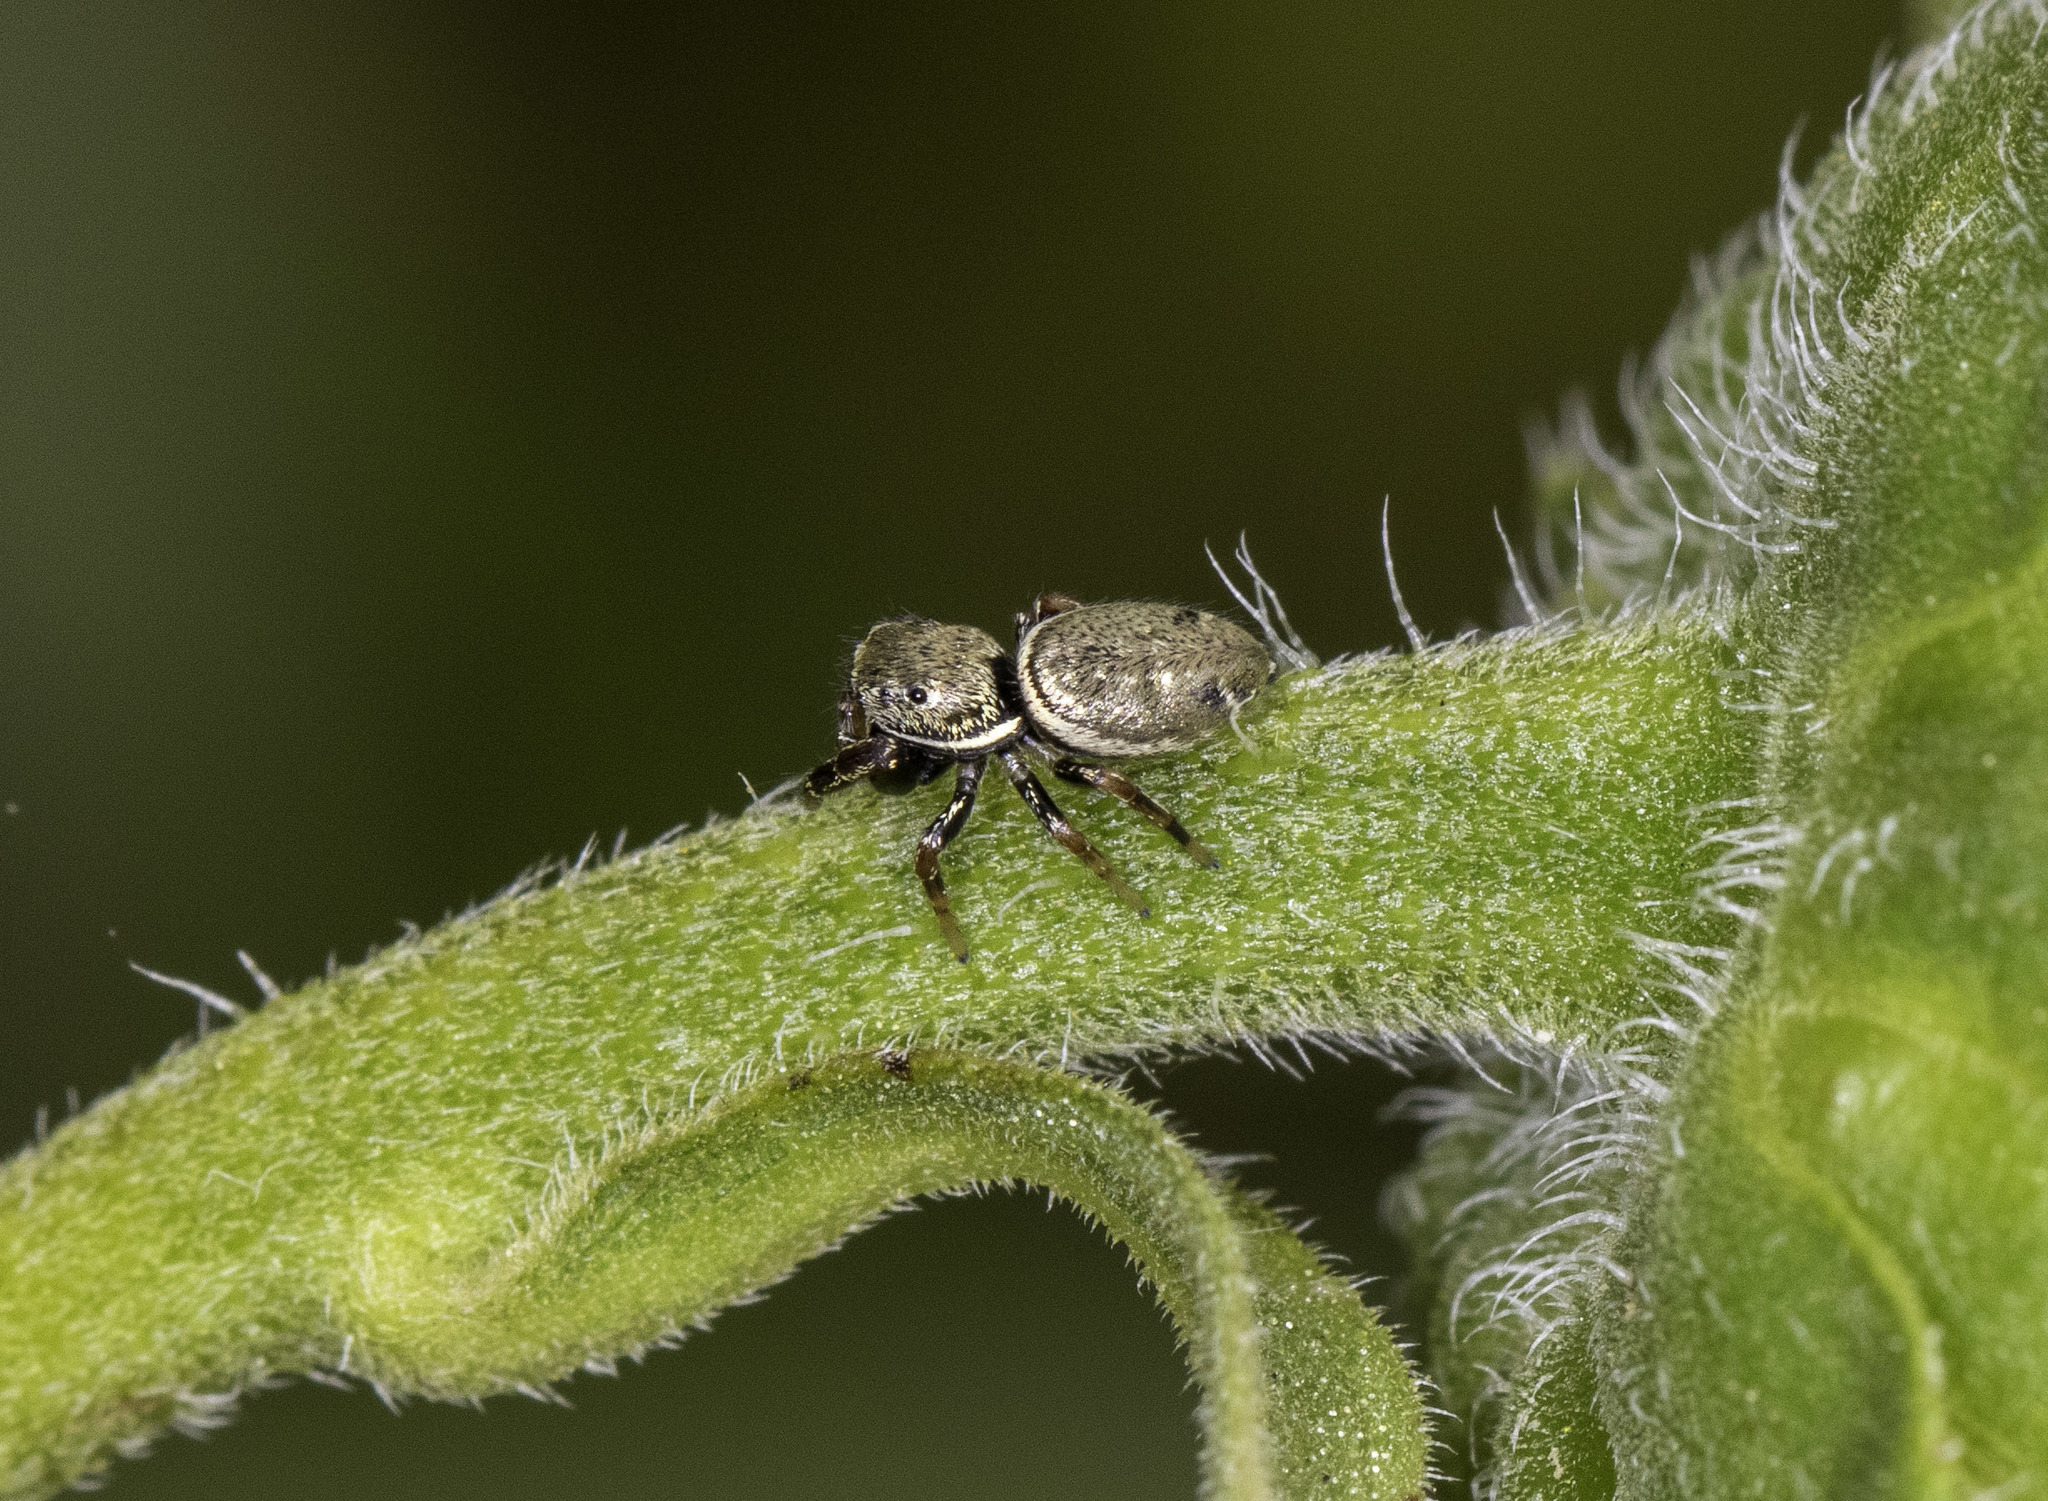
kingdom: Animalia
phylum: Arthropoda
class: Arachnida
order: Araneae
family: Salticidae
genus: Sassacus
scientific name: Sassacus vitis
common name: Jumping spiders
